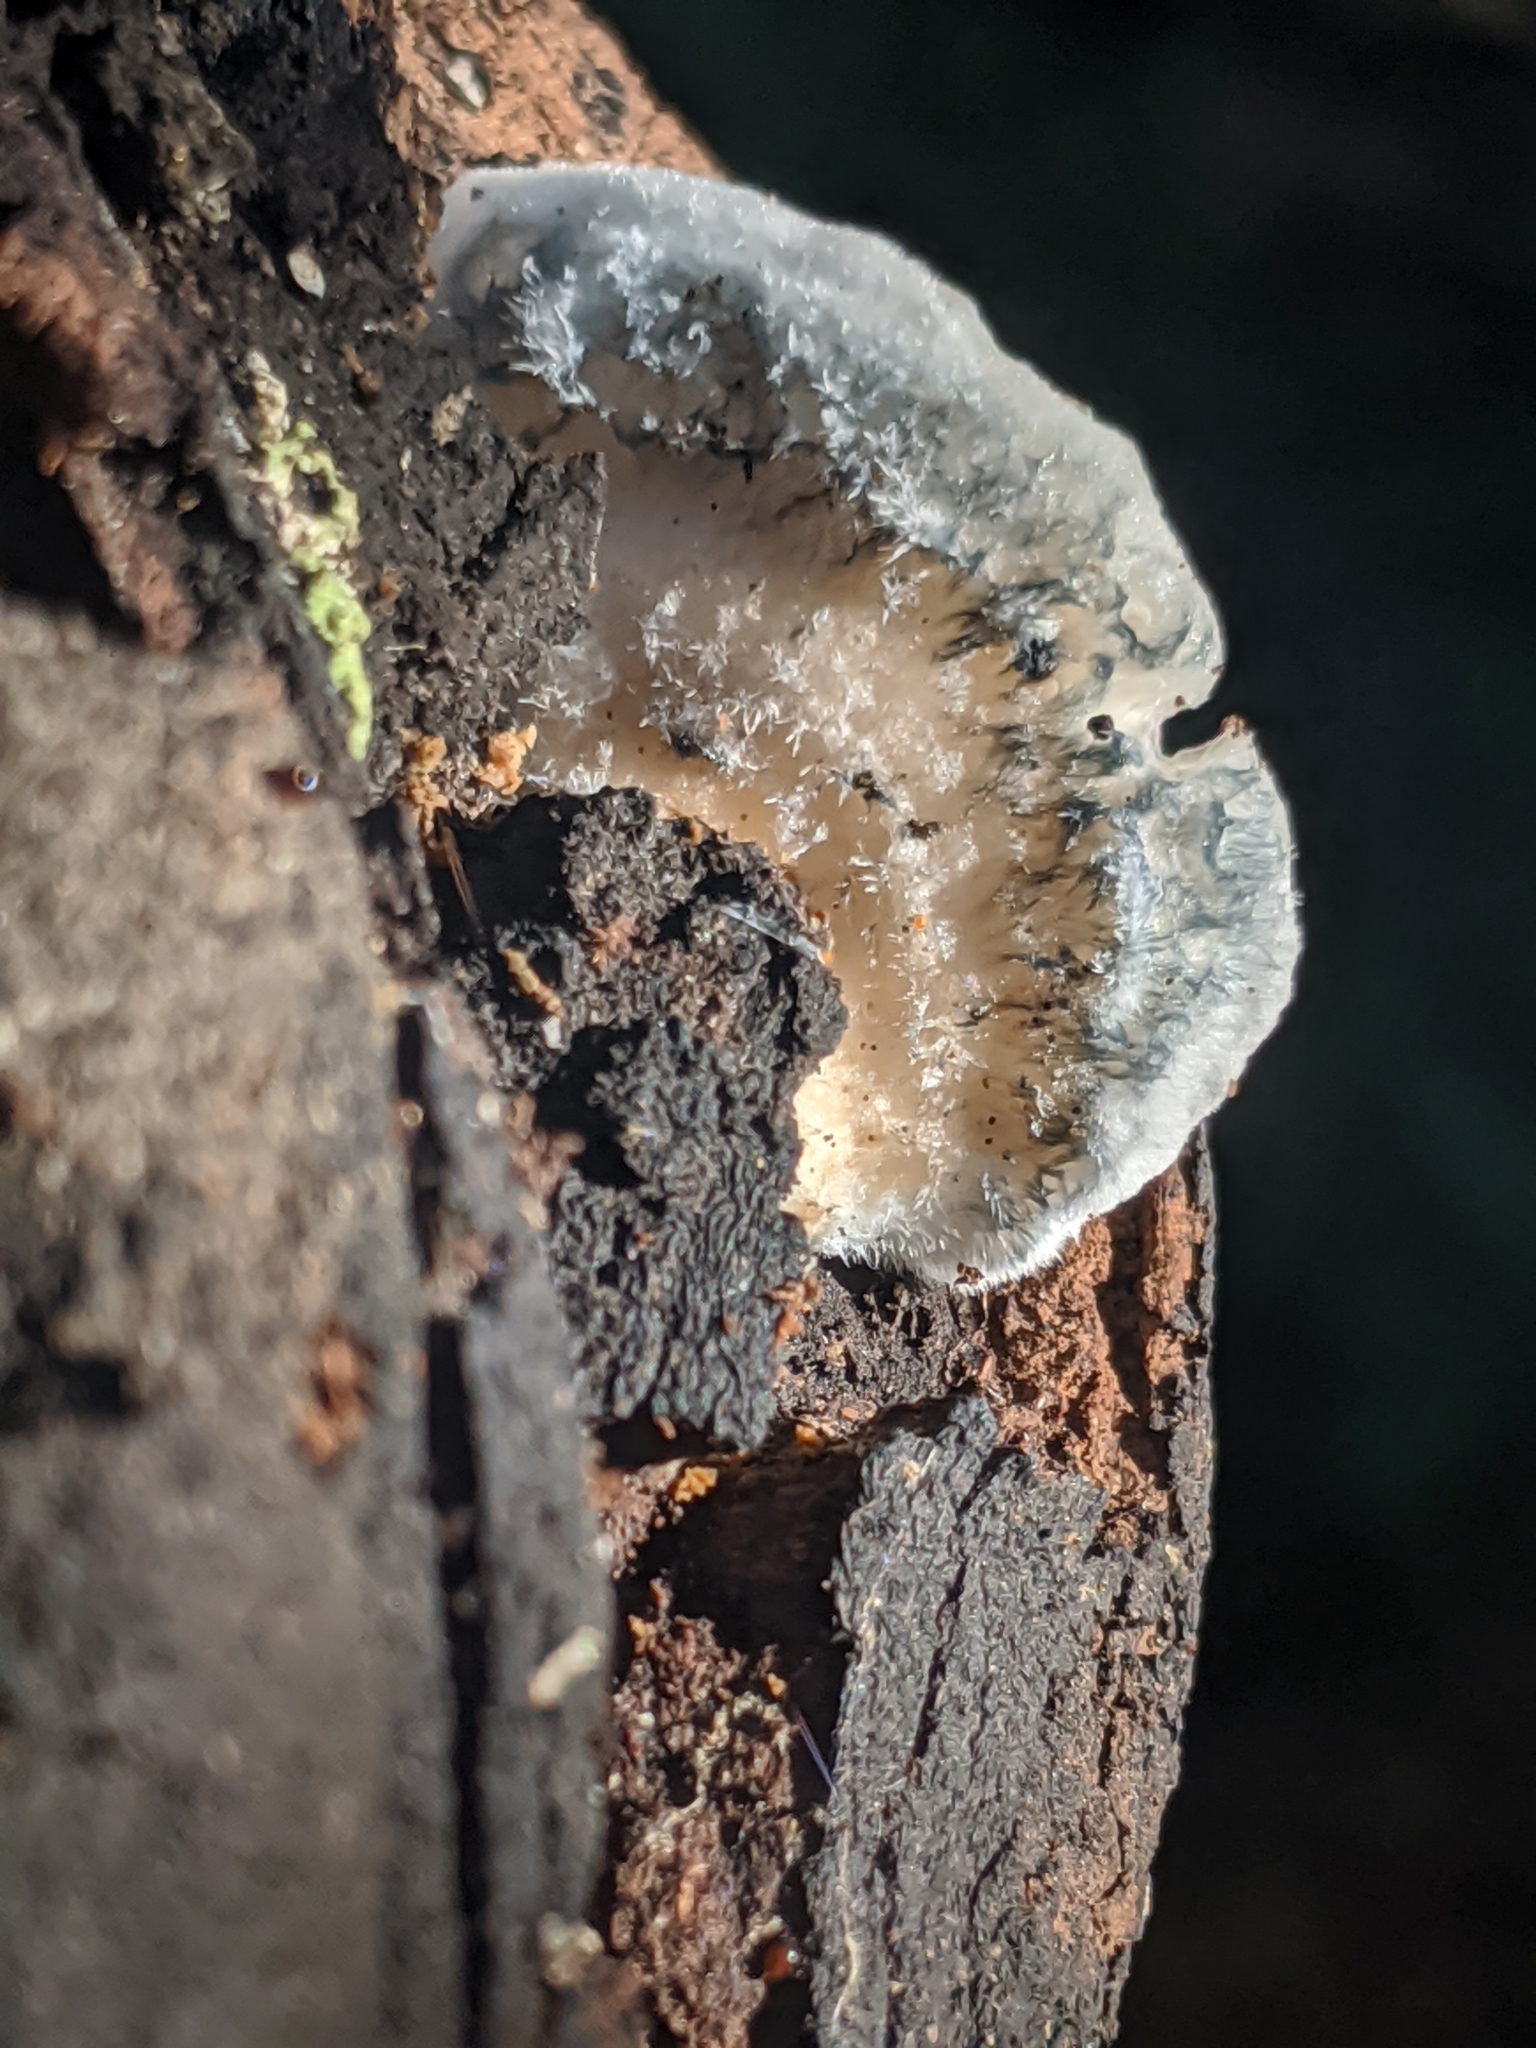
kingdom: Fungi
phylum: Basidiomycota
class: Agaricomycetes
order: Polyporales
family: Polyporaceae
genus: Cyanosporus
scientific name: Cyanosporus caesius
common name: Blue cheese polypore
